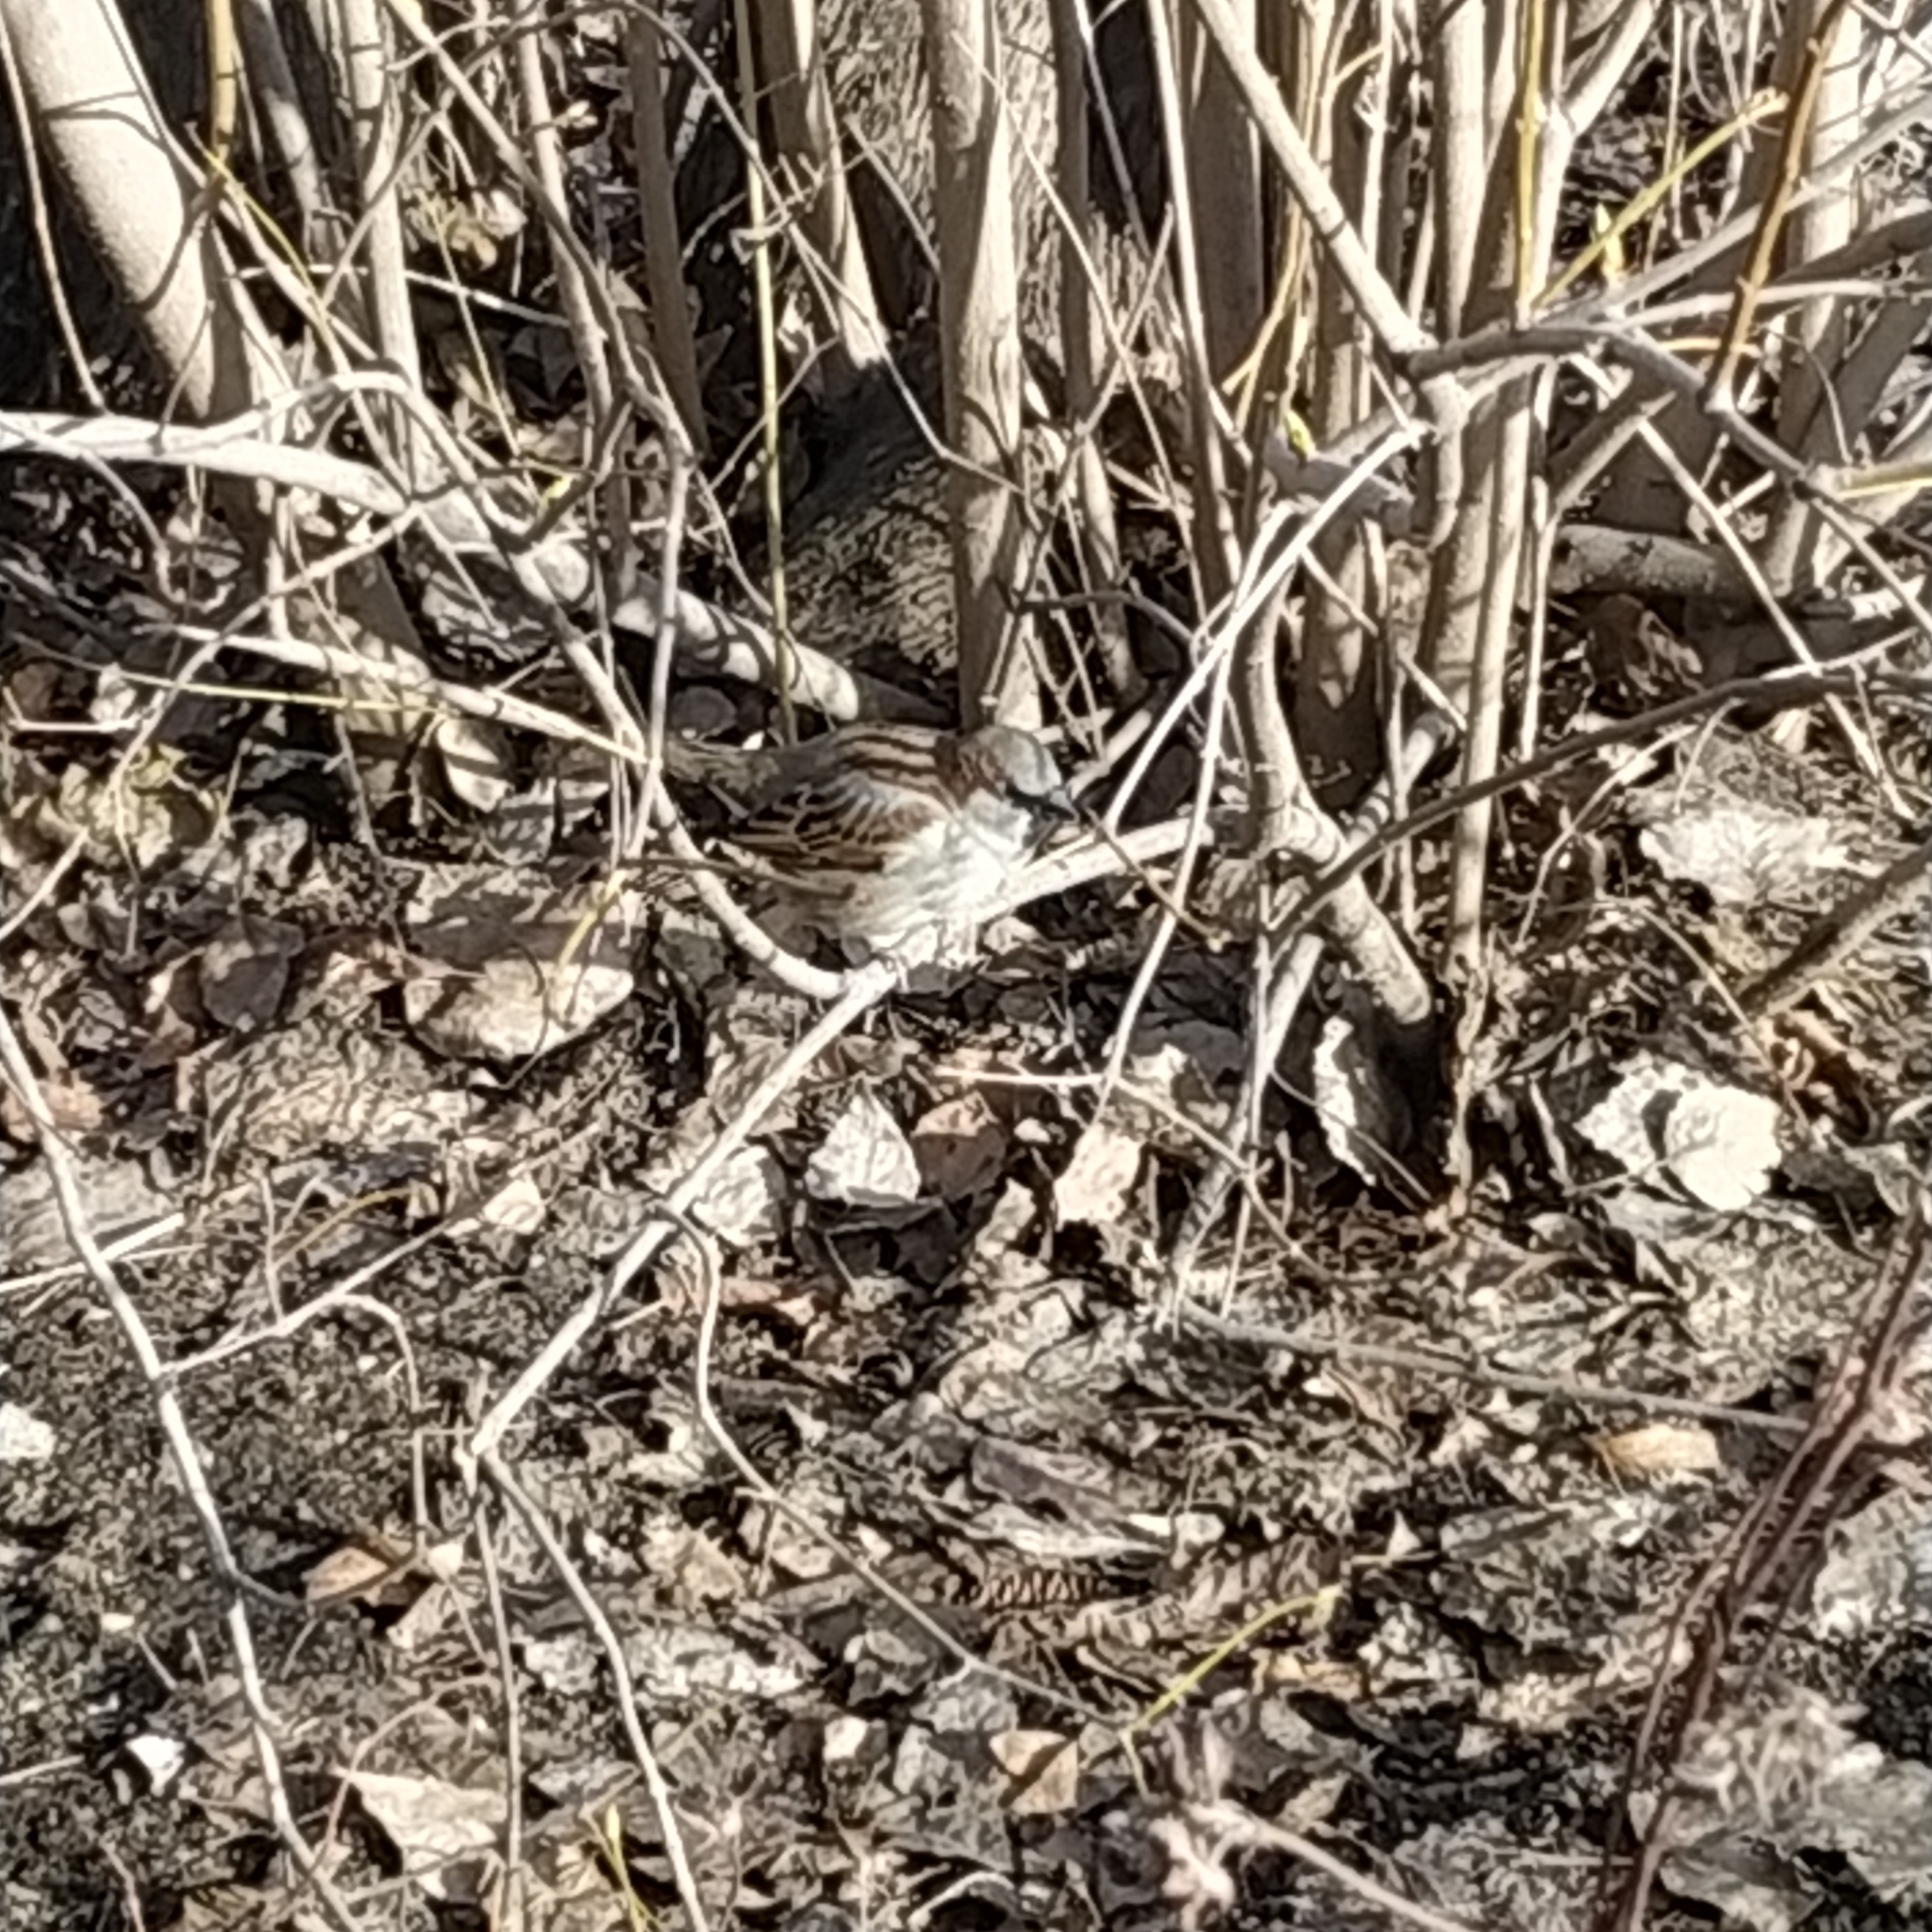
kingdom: Animalia
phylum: Chordata
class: Aves
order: Passeriformes
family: Passeridae
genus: Passer
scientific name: Passer domesticus
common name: House sparrow
